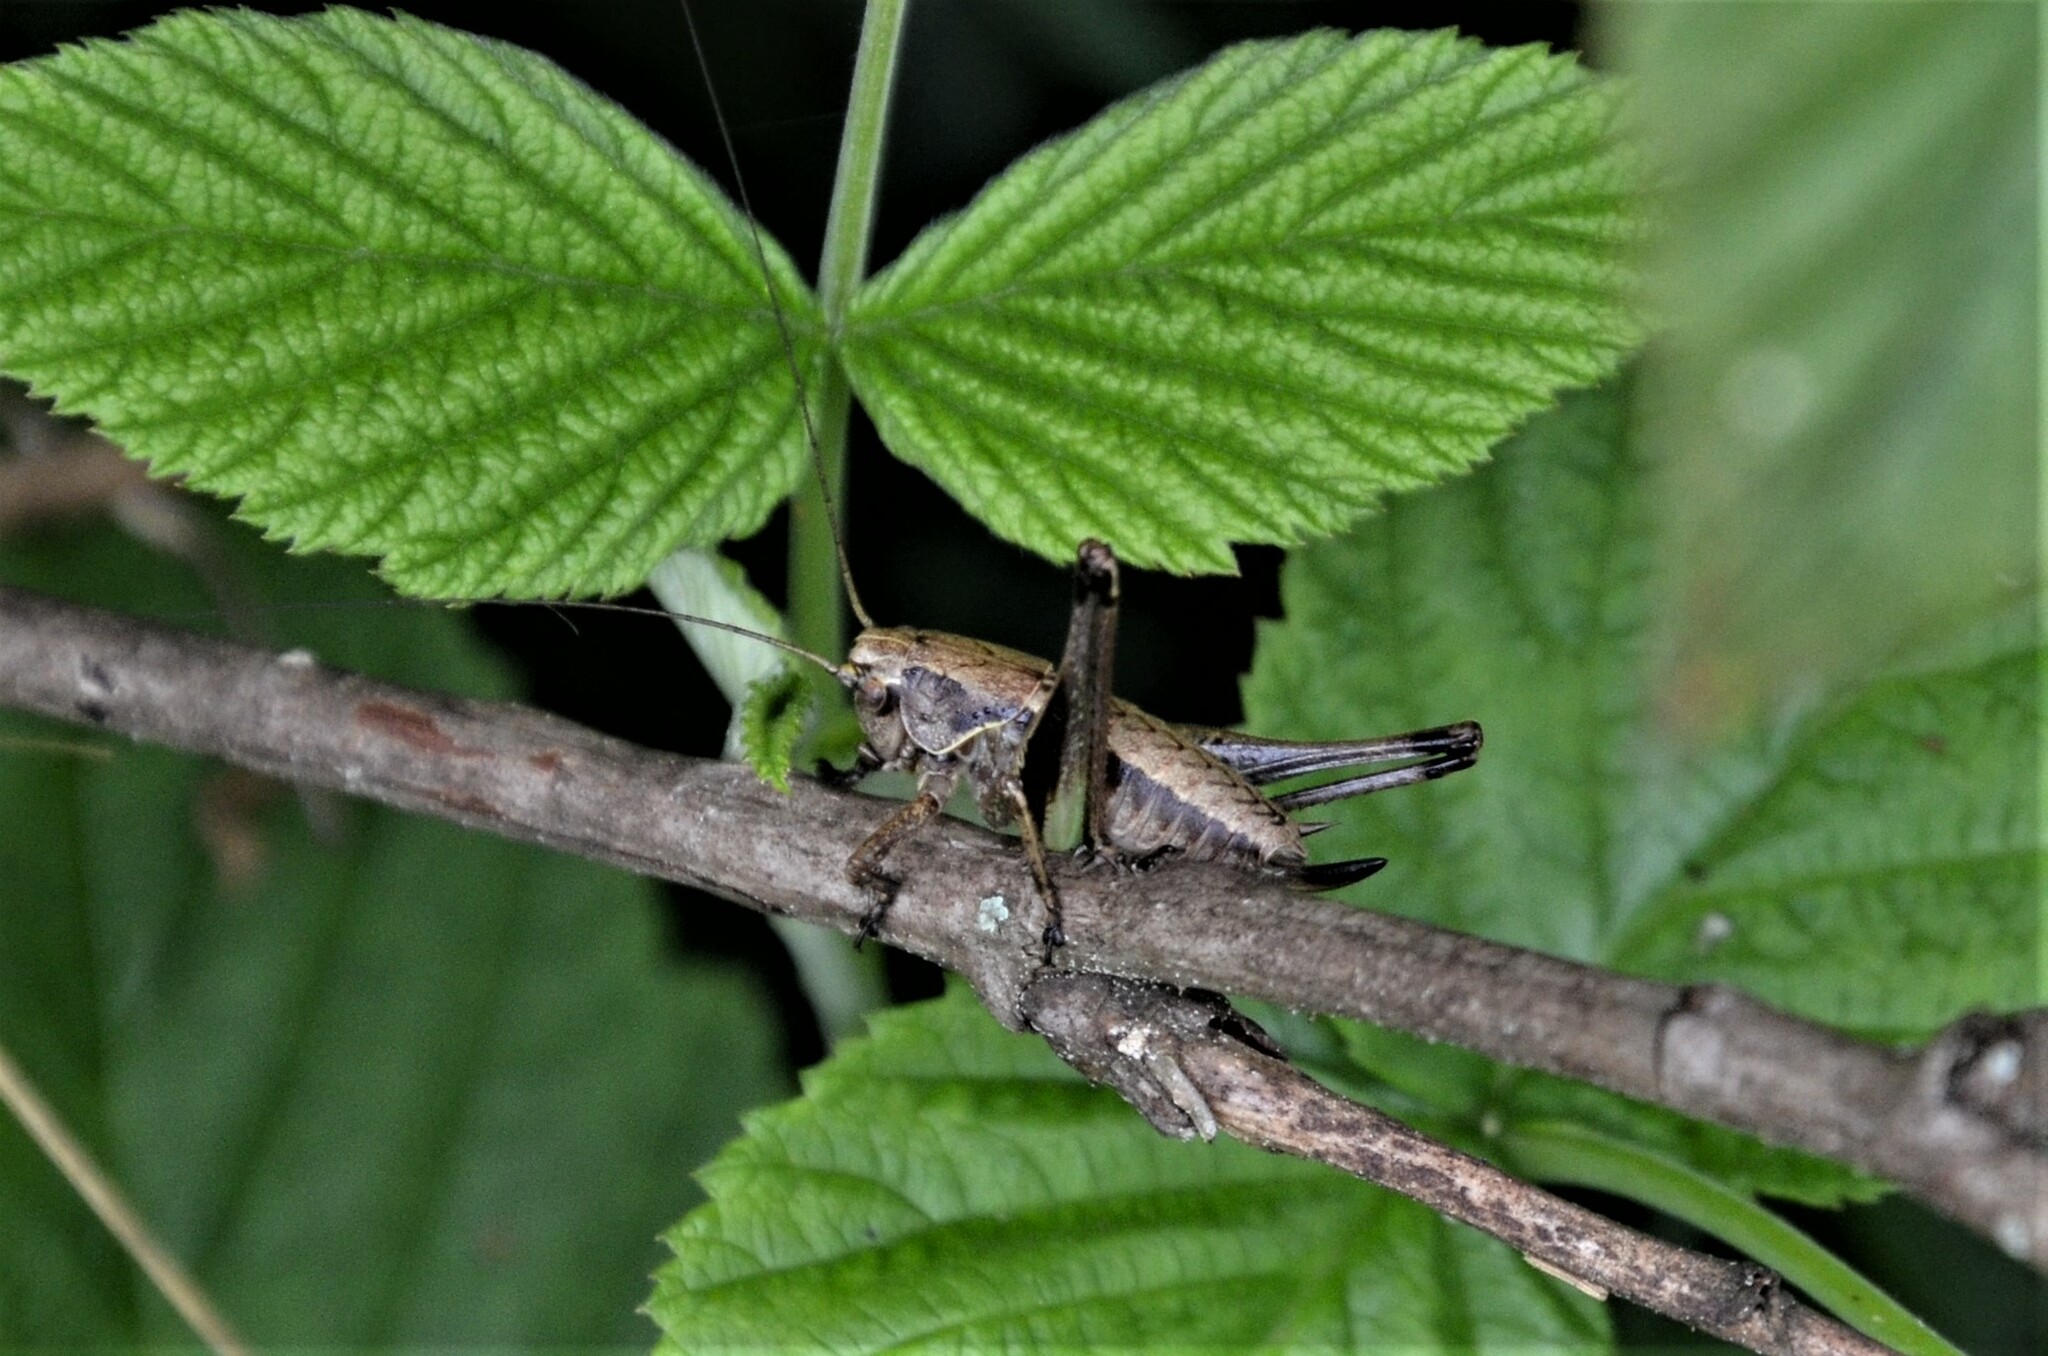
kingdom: Animalia
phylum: Arthropoda
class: Insecta
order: Orthoptera
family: Tettigoniidae
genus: Pholidoptera
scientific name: Pholidoptera griseoaptera
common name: Dark bush-cricket
